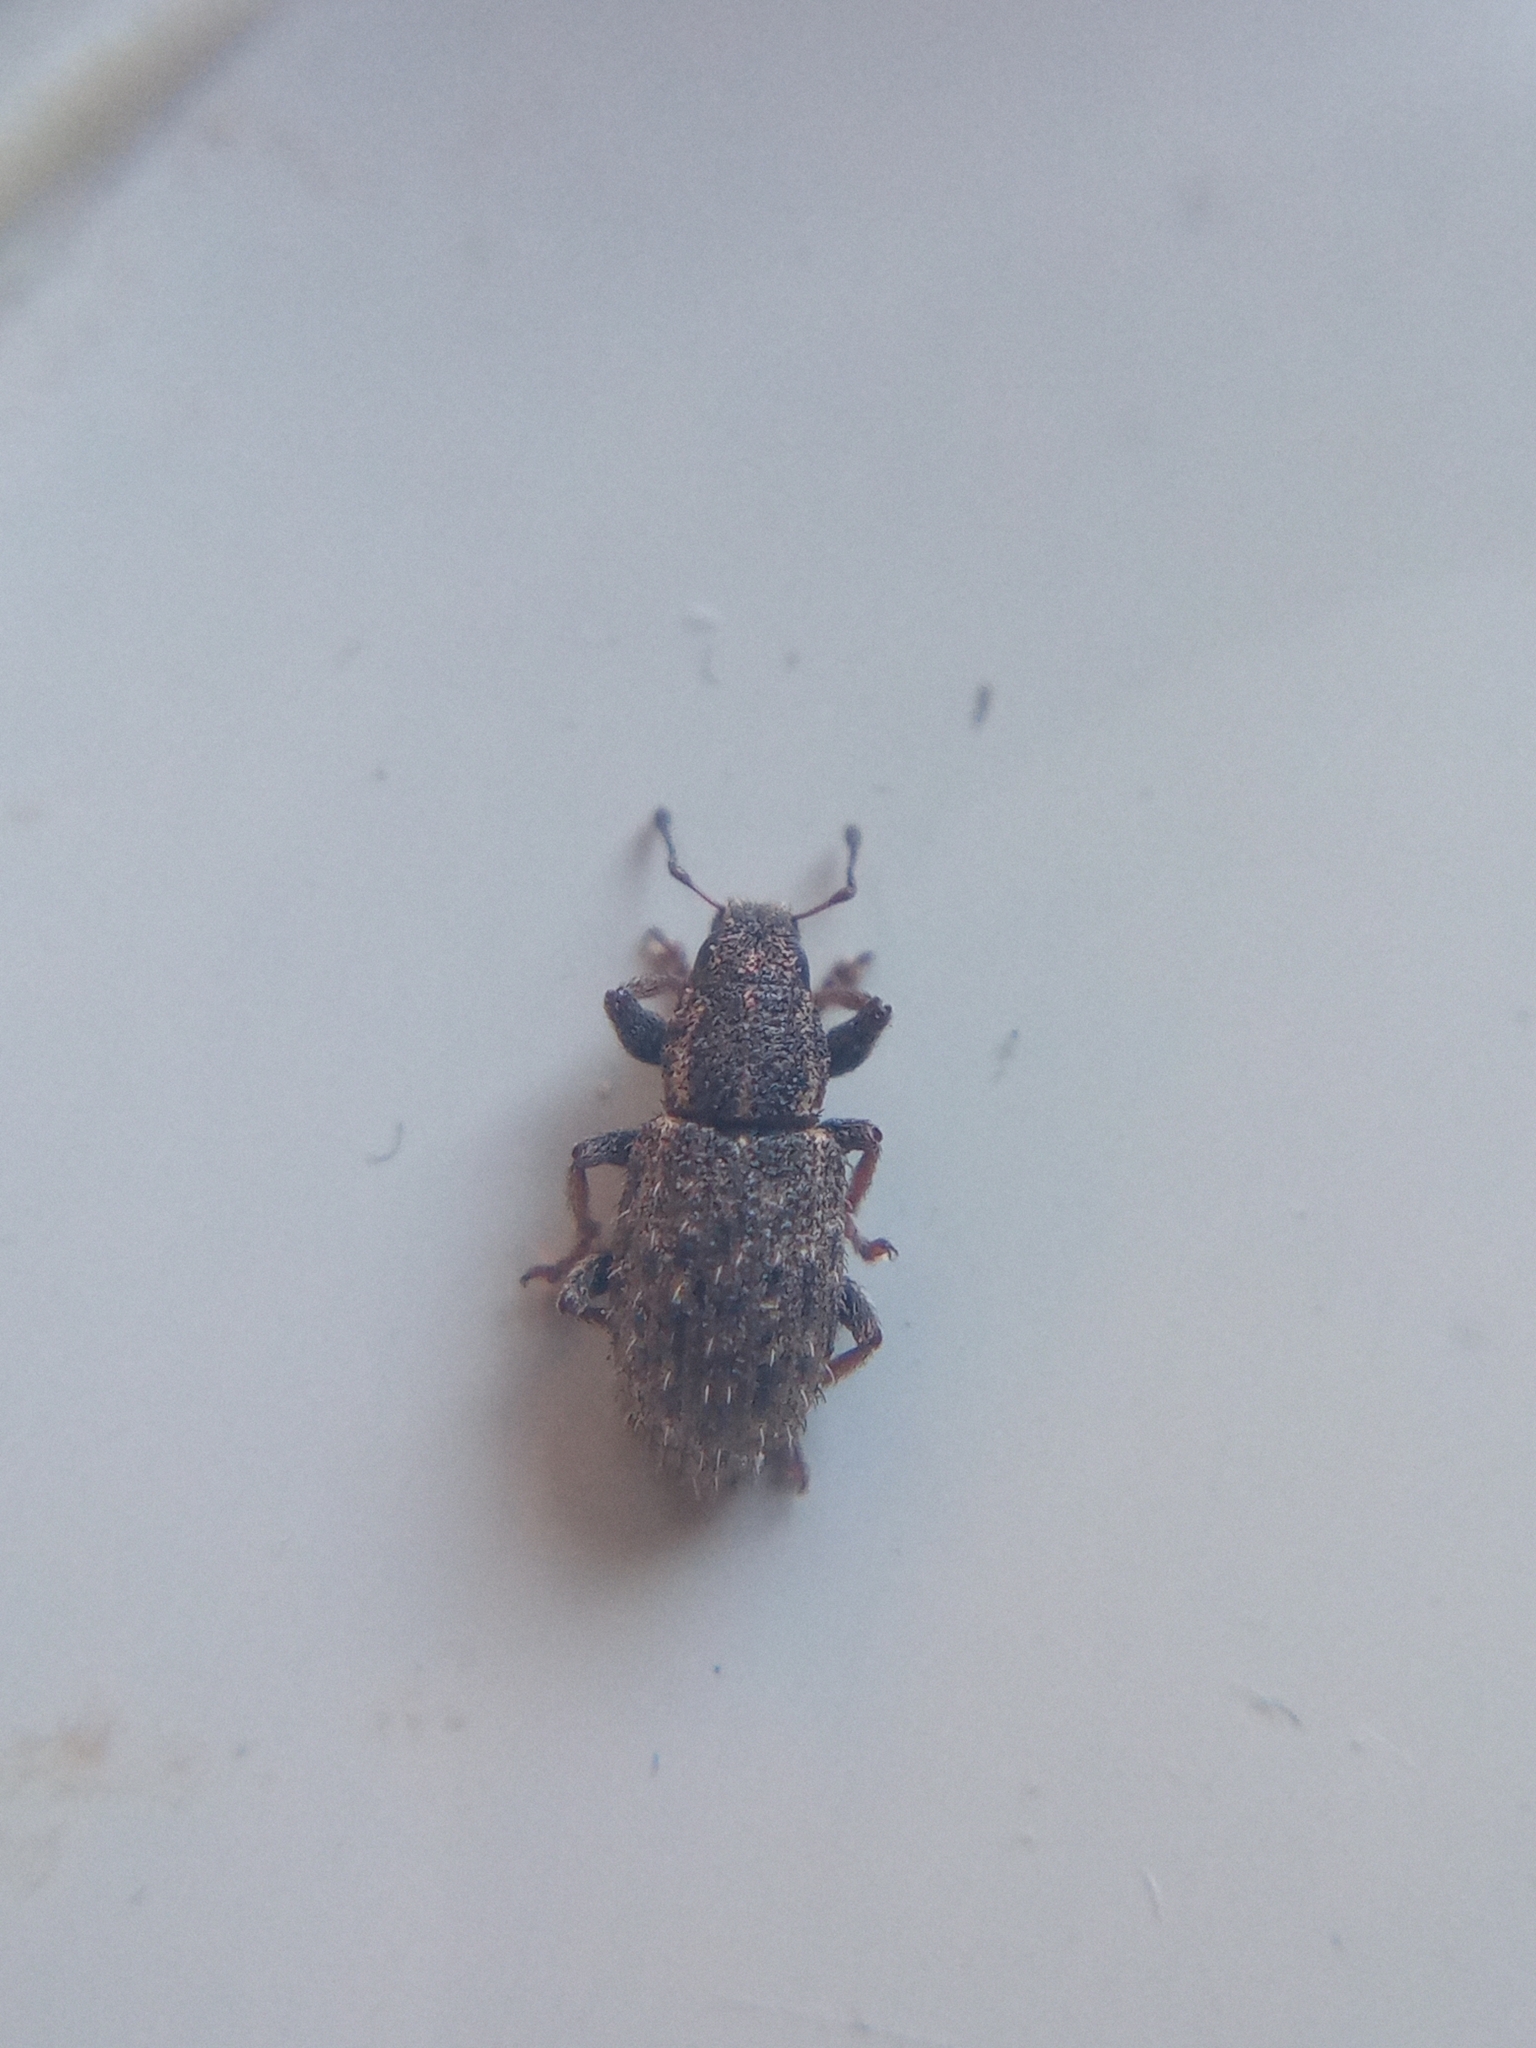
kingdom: Animalia
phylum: Arthropoda
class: Insecta
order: Coleoptera
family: Curculionidae
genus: Sitona
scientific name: Sitona hispidulus
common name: Clover weevil
